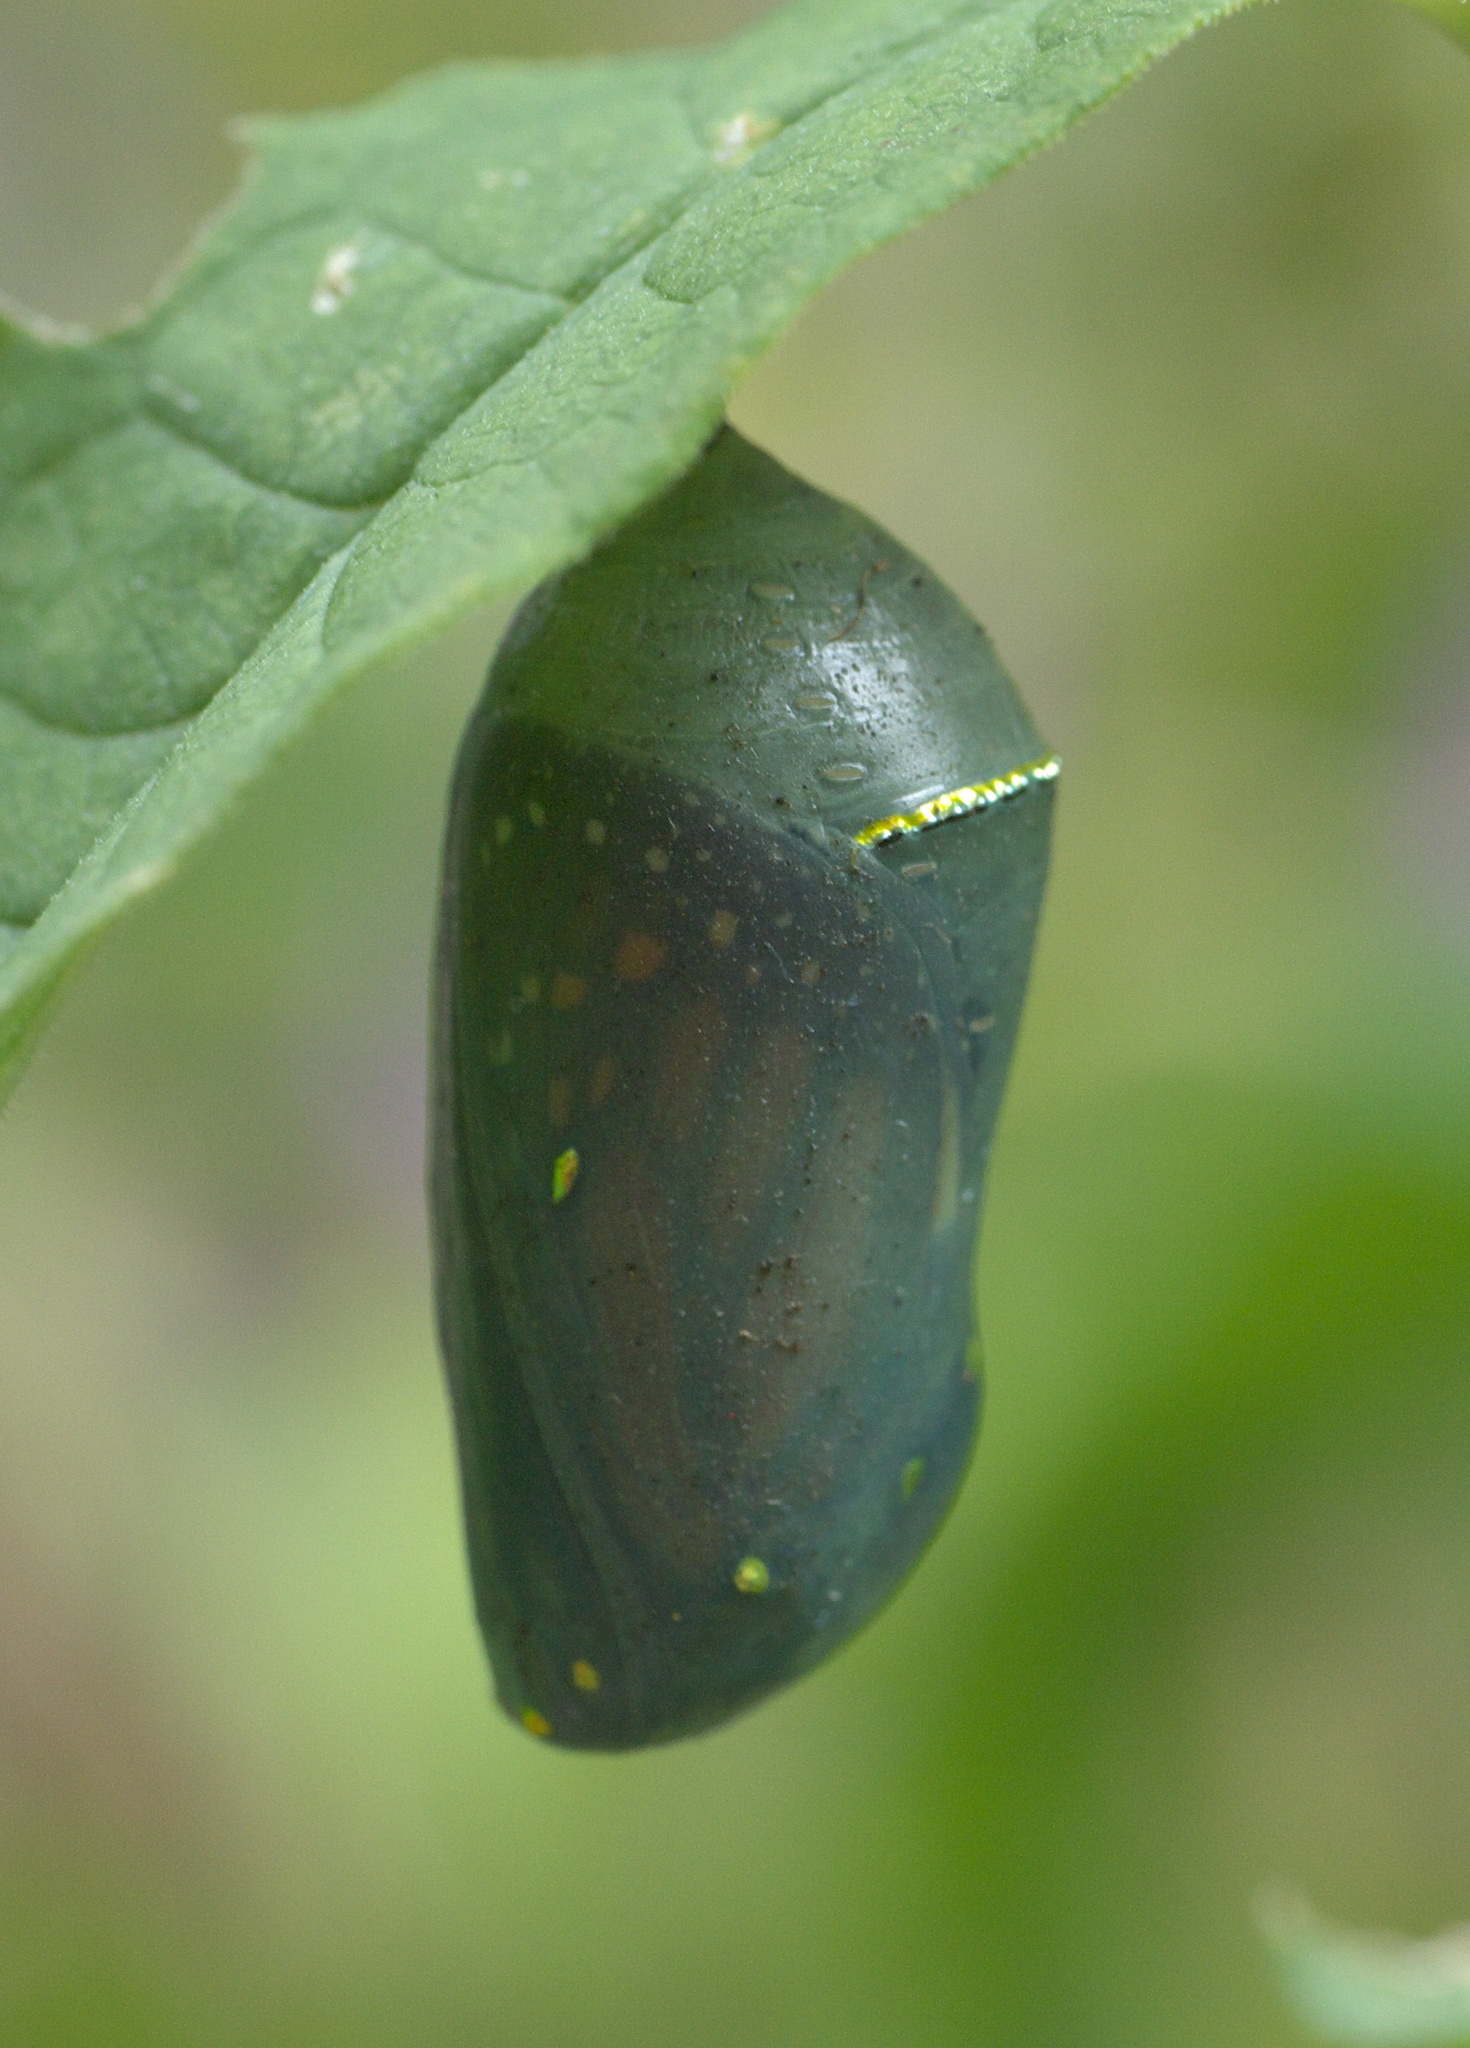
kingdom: Animalia
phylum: Arthropoda
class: Insecta
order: Lepidoptera
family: Nymphalidae
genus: Danaus
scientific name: Danaus plexippus
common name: Monarch
